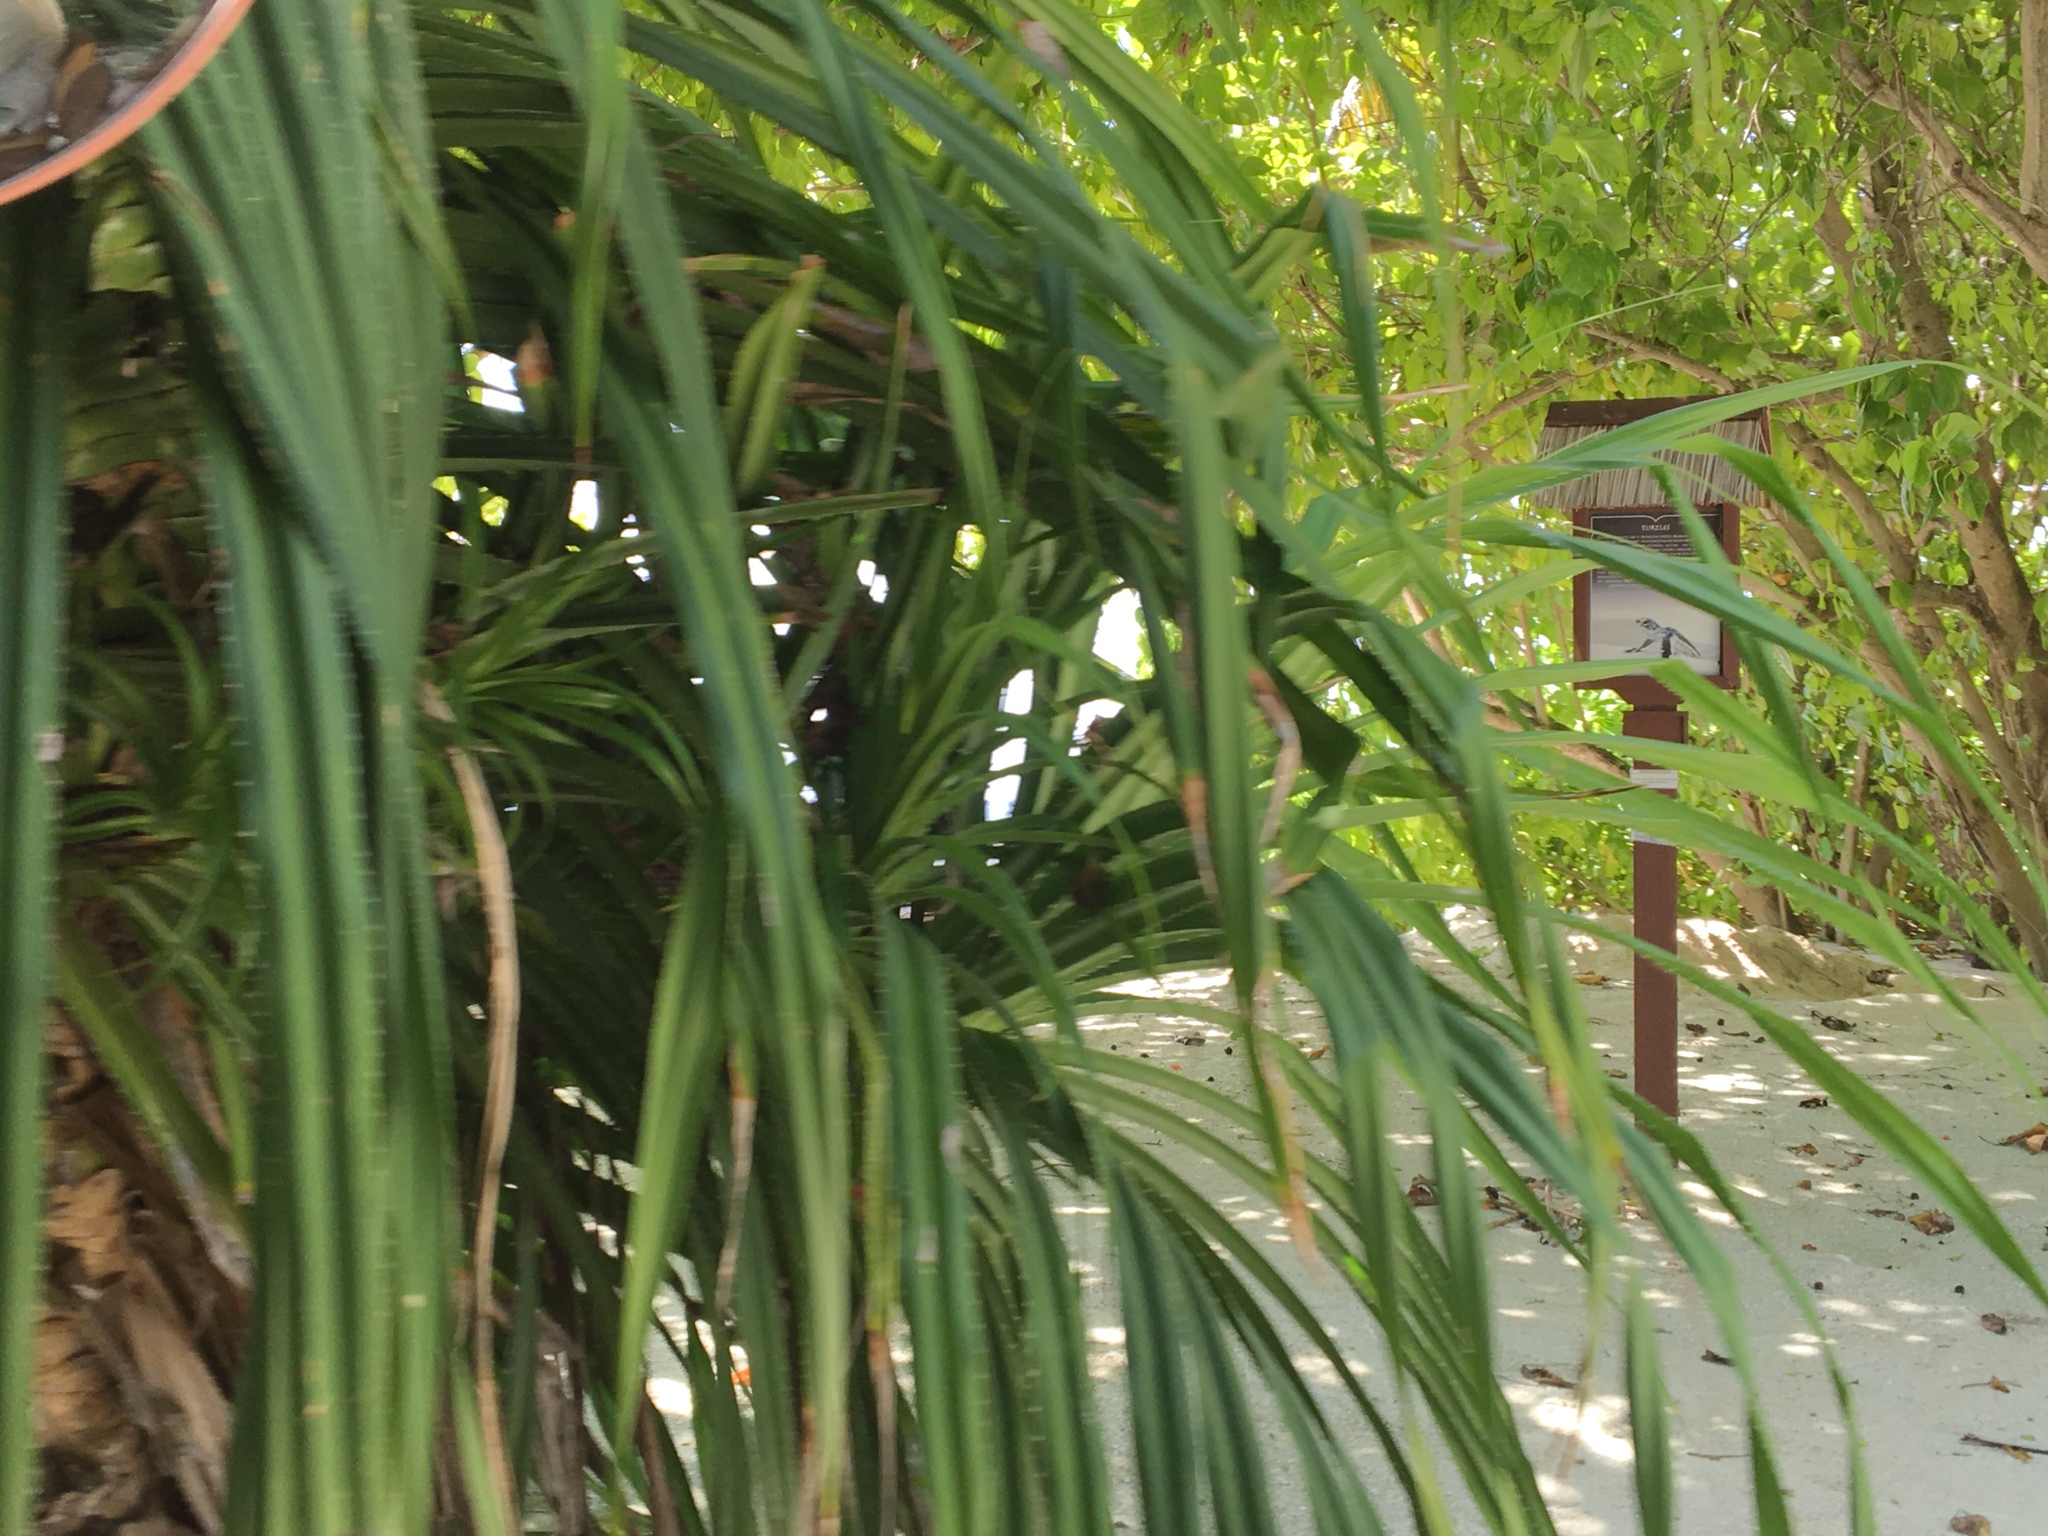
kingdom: Plantae
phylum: Tracheophyta
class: Liliopsida
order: Pandanales
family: Pandanaceae
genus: Pandanus
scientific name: Pandanus odorifer
